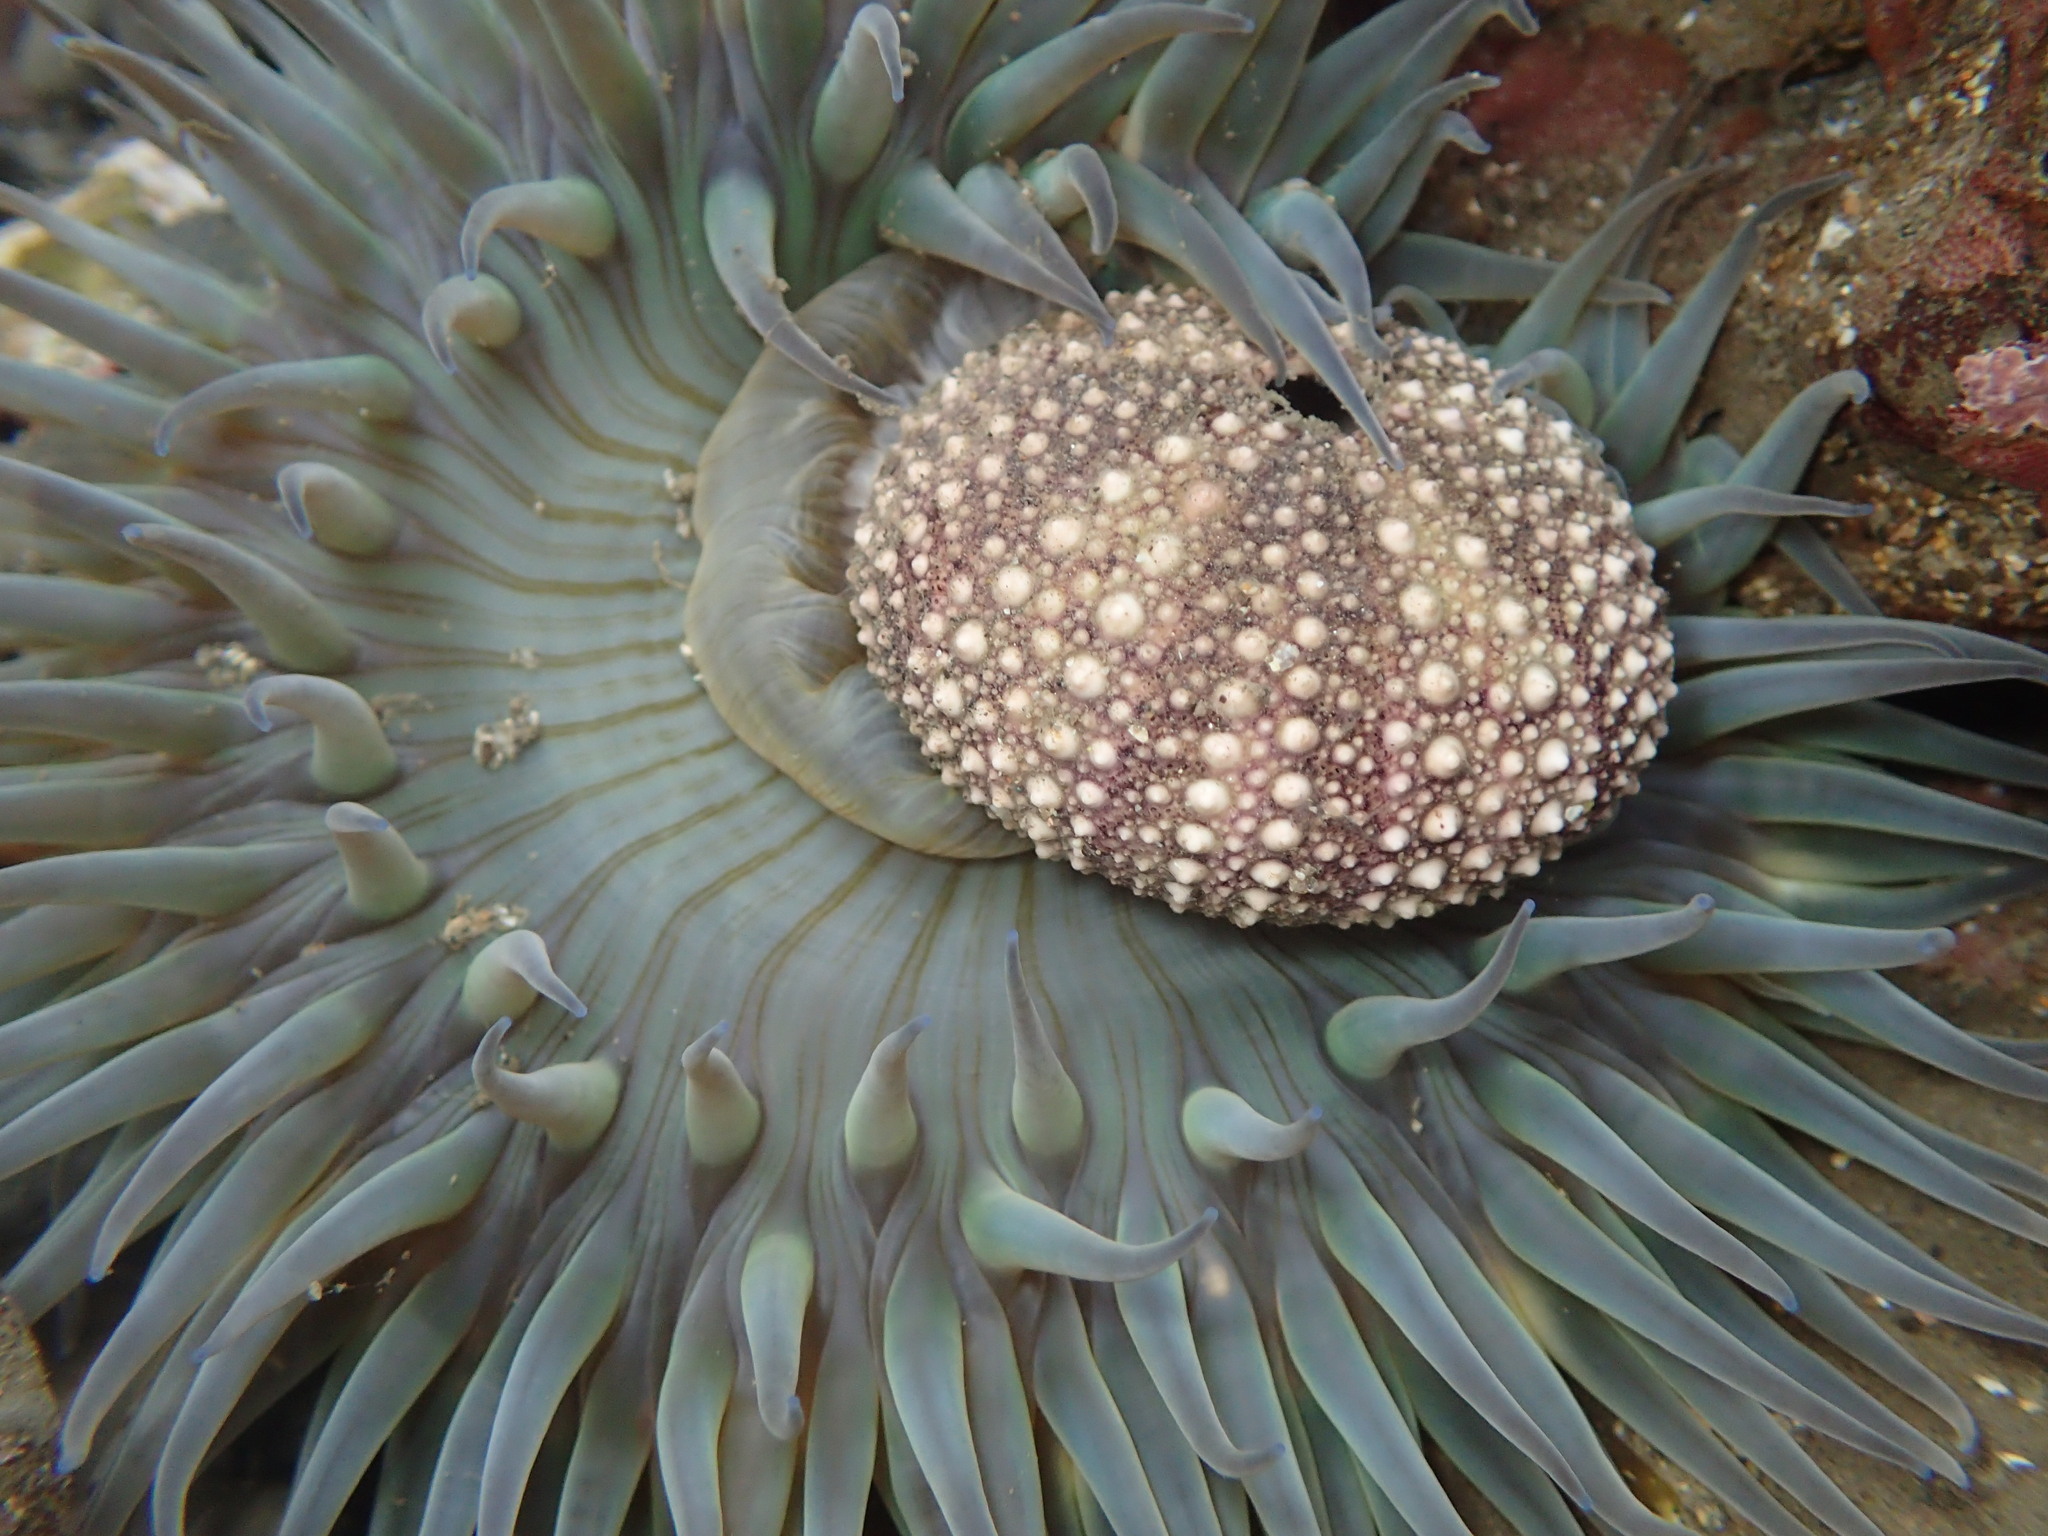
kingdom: Animalia
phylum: Echinodermata
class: Echinoidea
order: Camarodonta
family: Strongylocentrotidae
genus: Strongylocentrotus
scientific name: Strongylocentrotus purpuratus
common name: Purple sea urchin
